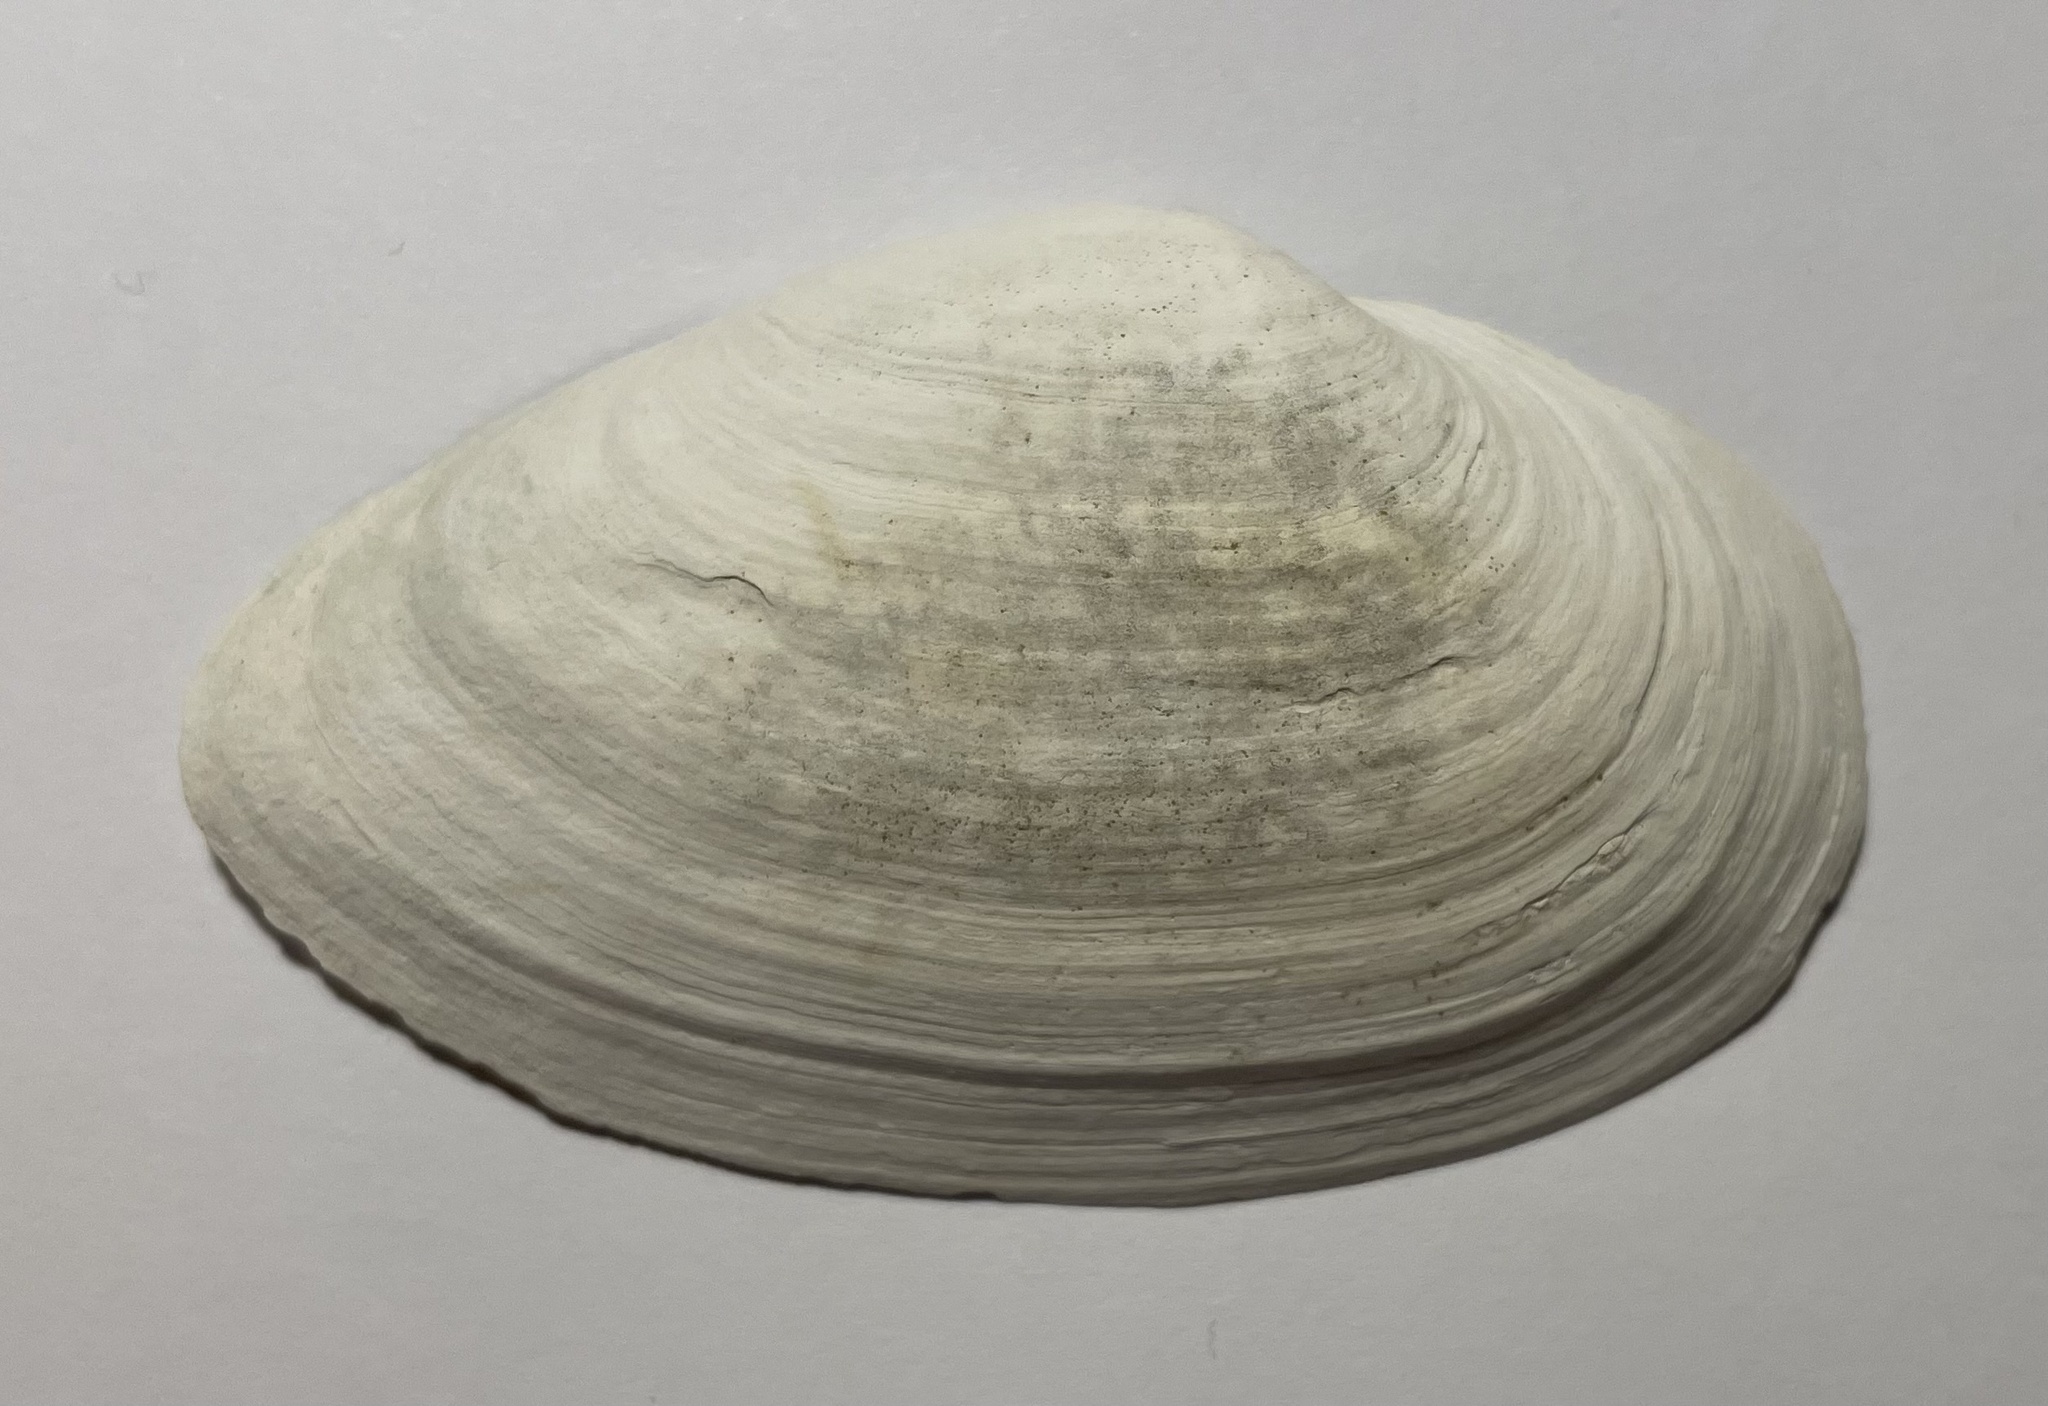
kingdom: Animalia
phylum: Mollusca
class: Bivalvia
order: Myida
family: Myidae
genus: Mya
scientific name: Mya arenaria
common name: Soft-shelled clam
